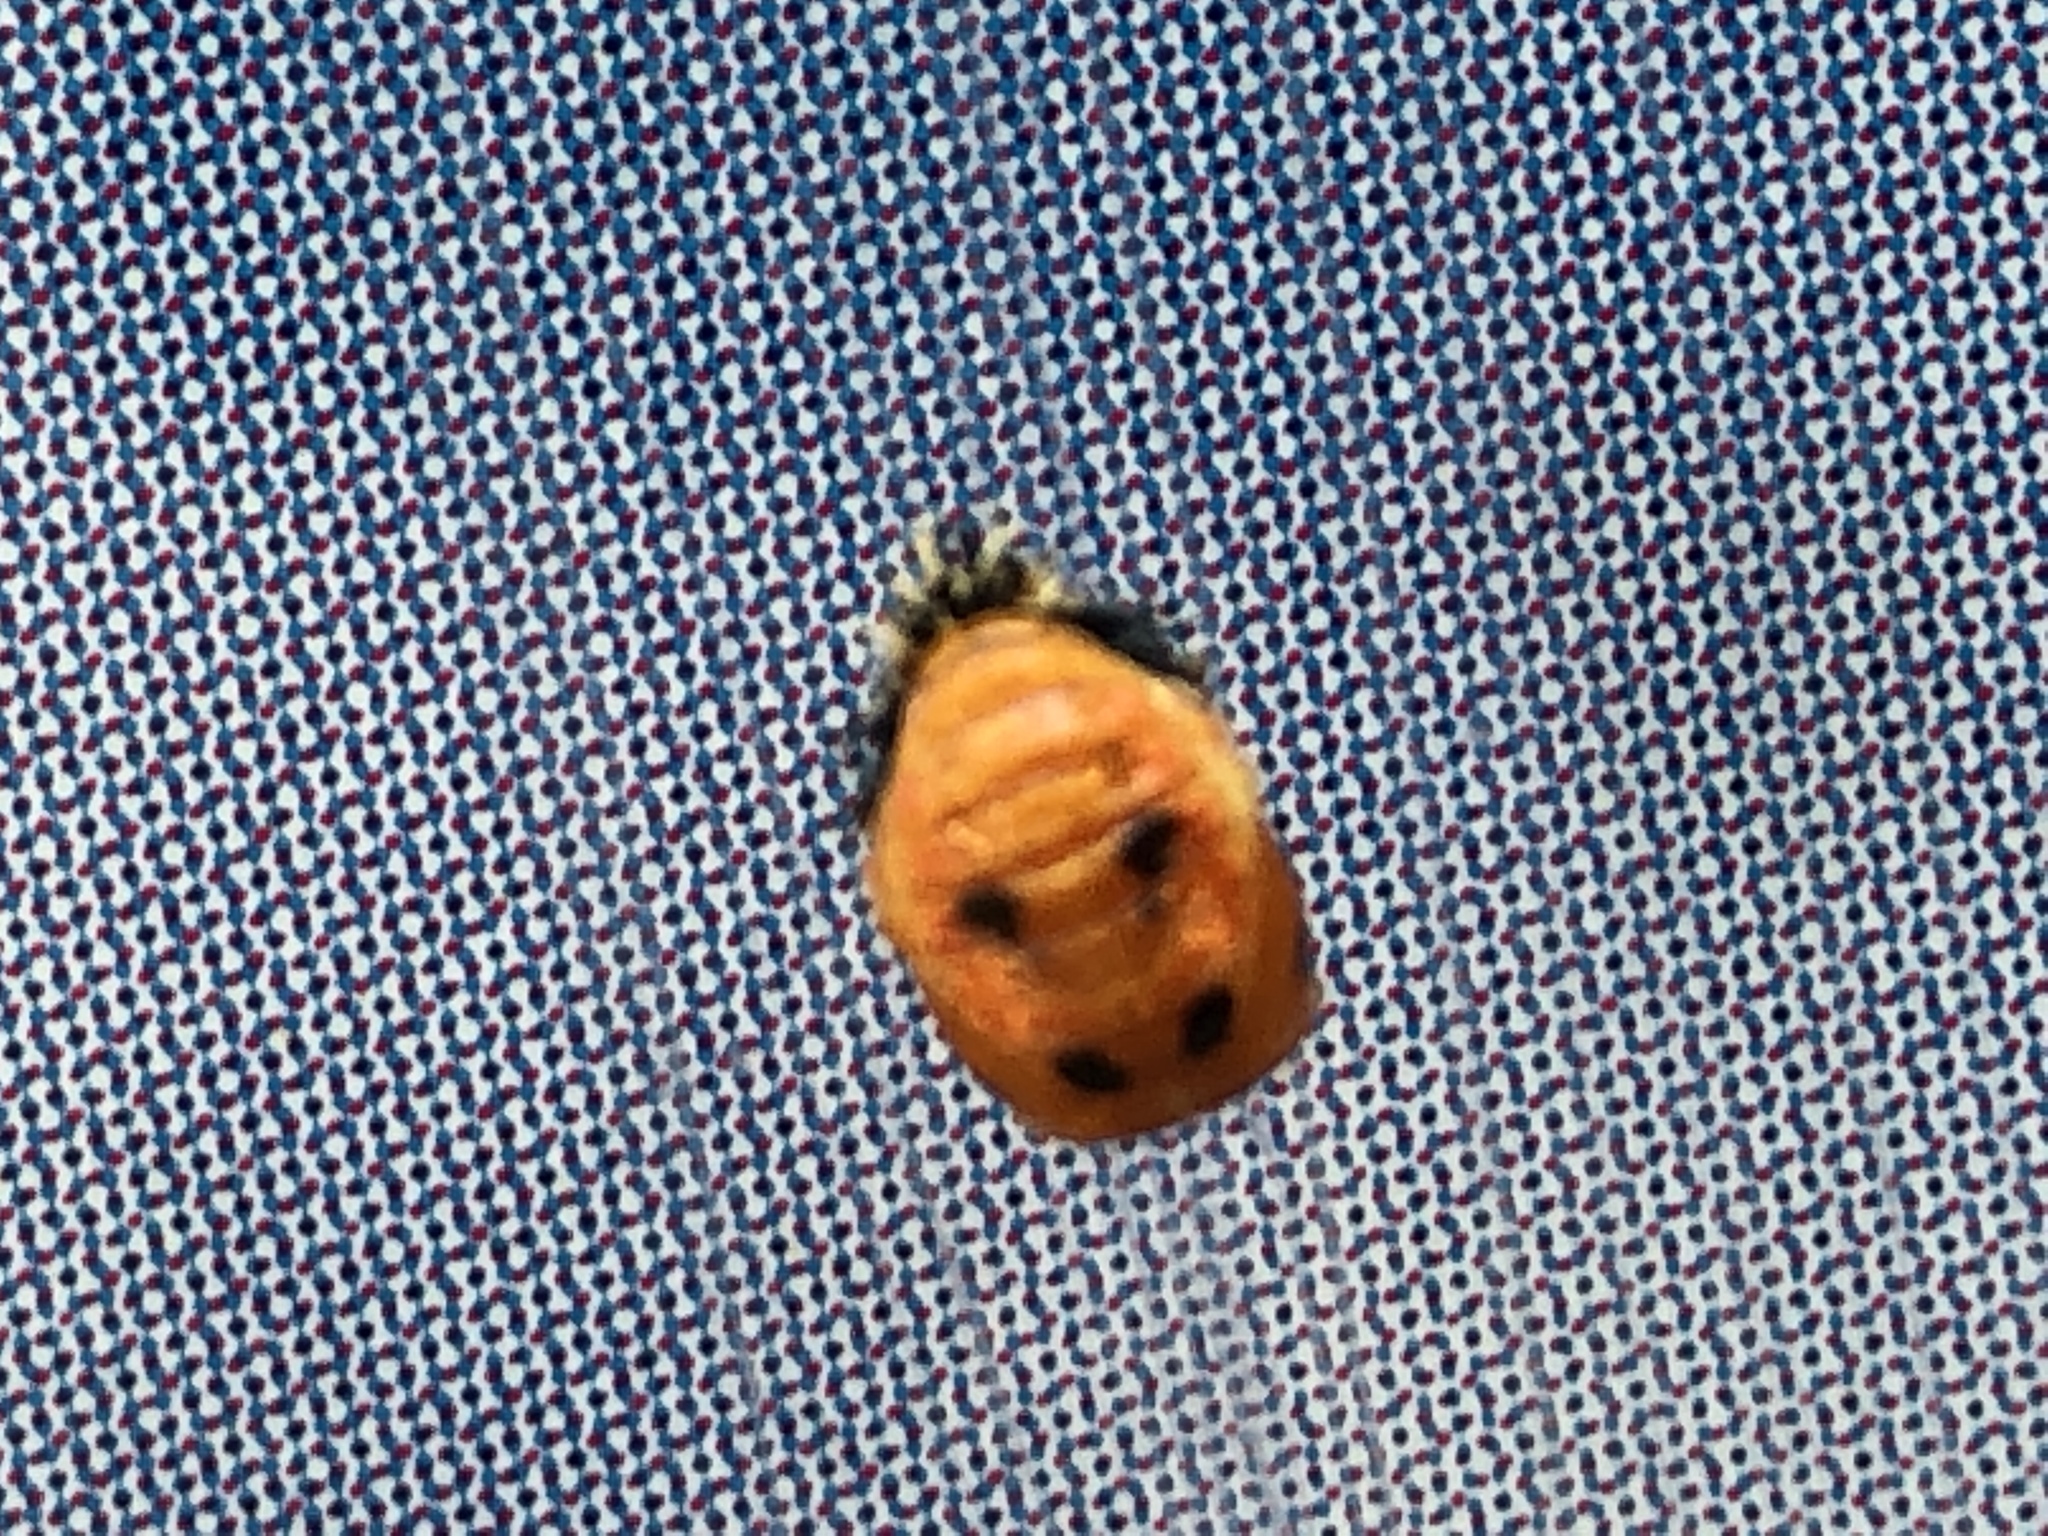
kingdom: Animalia
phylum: Arthropoda
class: Insecta
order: Coleoptera
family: Coccinellidae
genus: Harmonia
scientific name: Harmonia axyridis
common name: Harlequin ladybird
